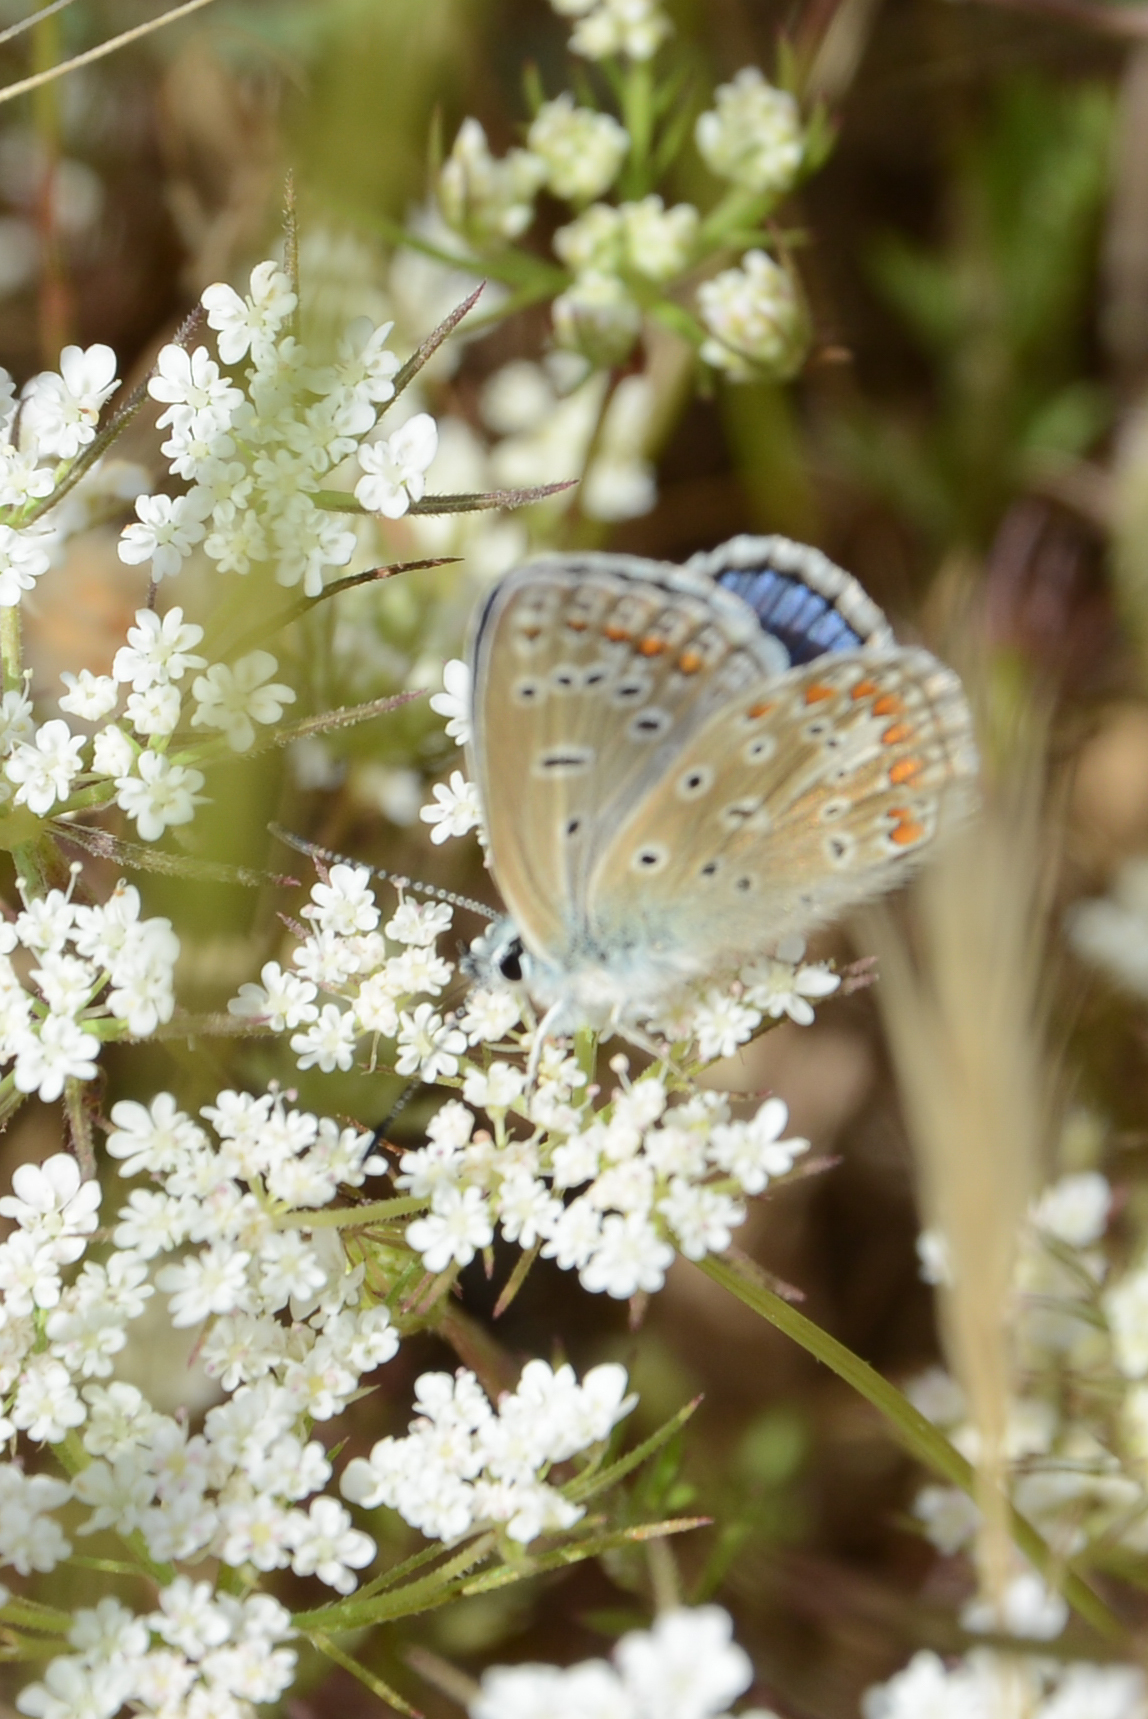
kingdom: Animalia
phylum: Arthropoda
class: Insecta
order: Lepidoptera
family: Lycaenidae
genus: Polyommatus
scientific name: Polyommatus icarus
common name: Common blue
